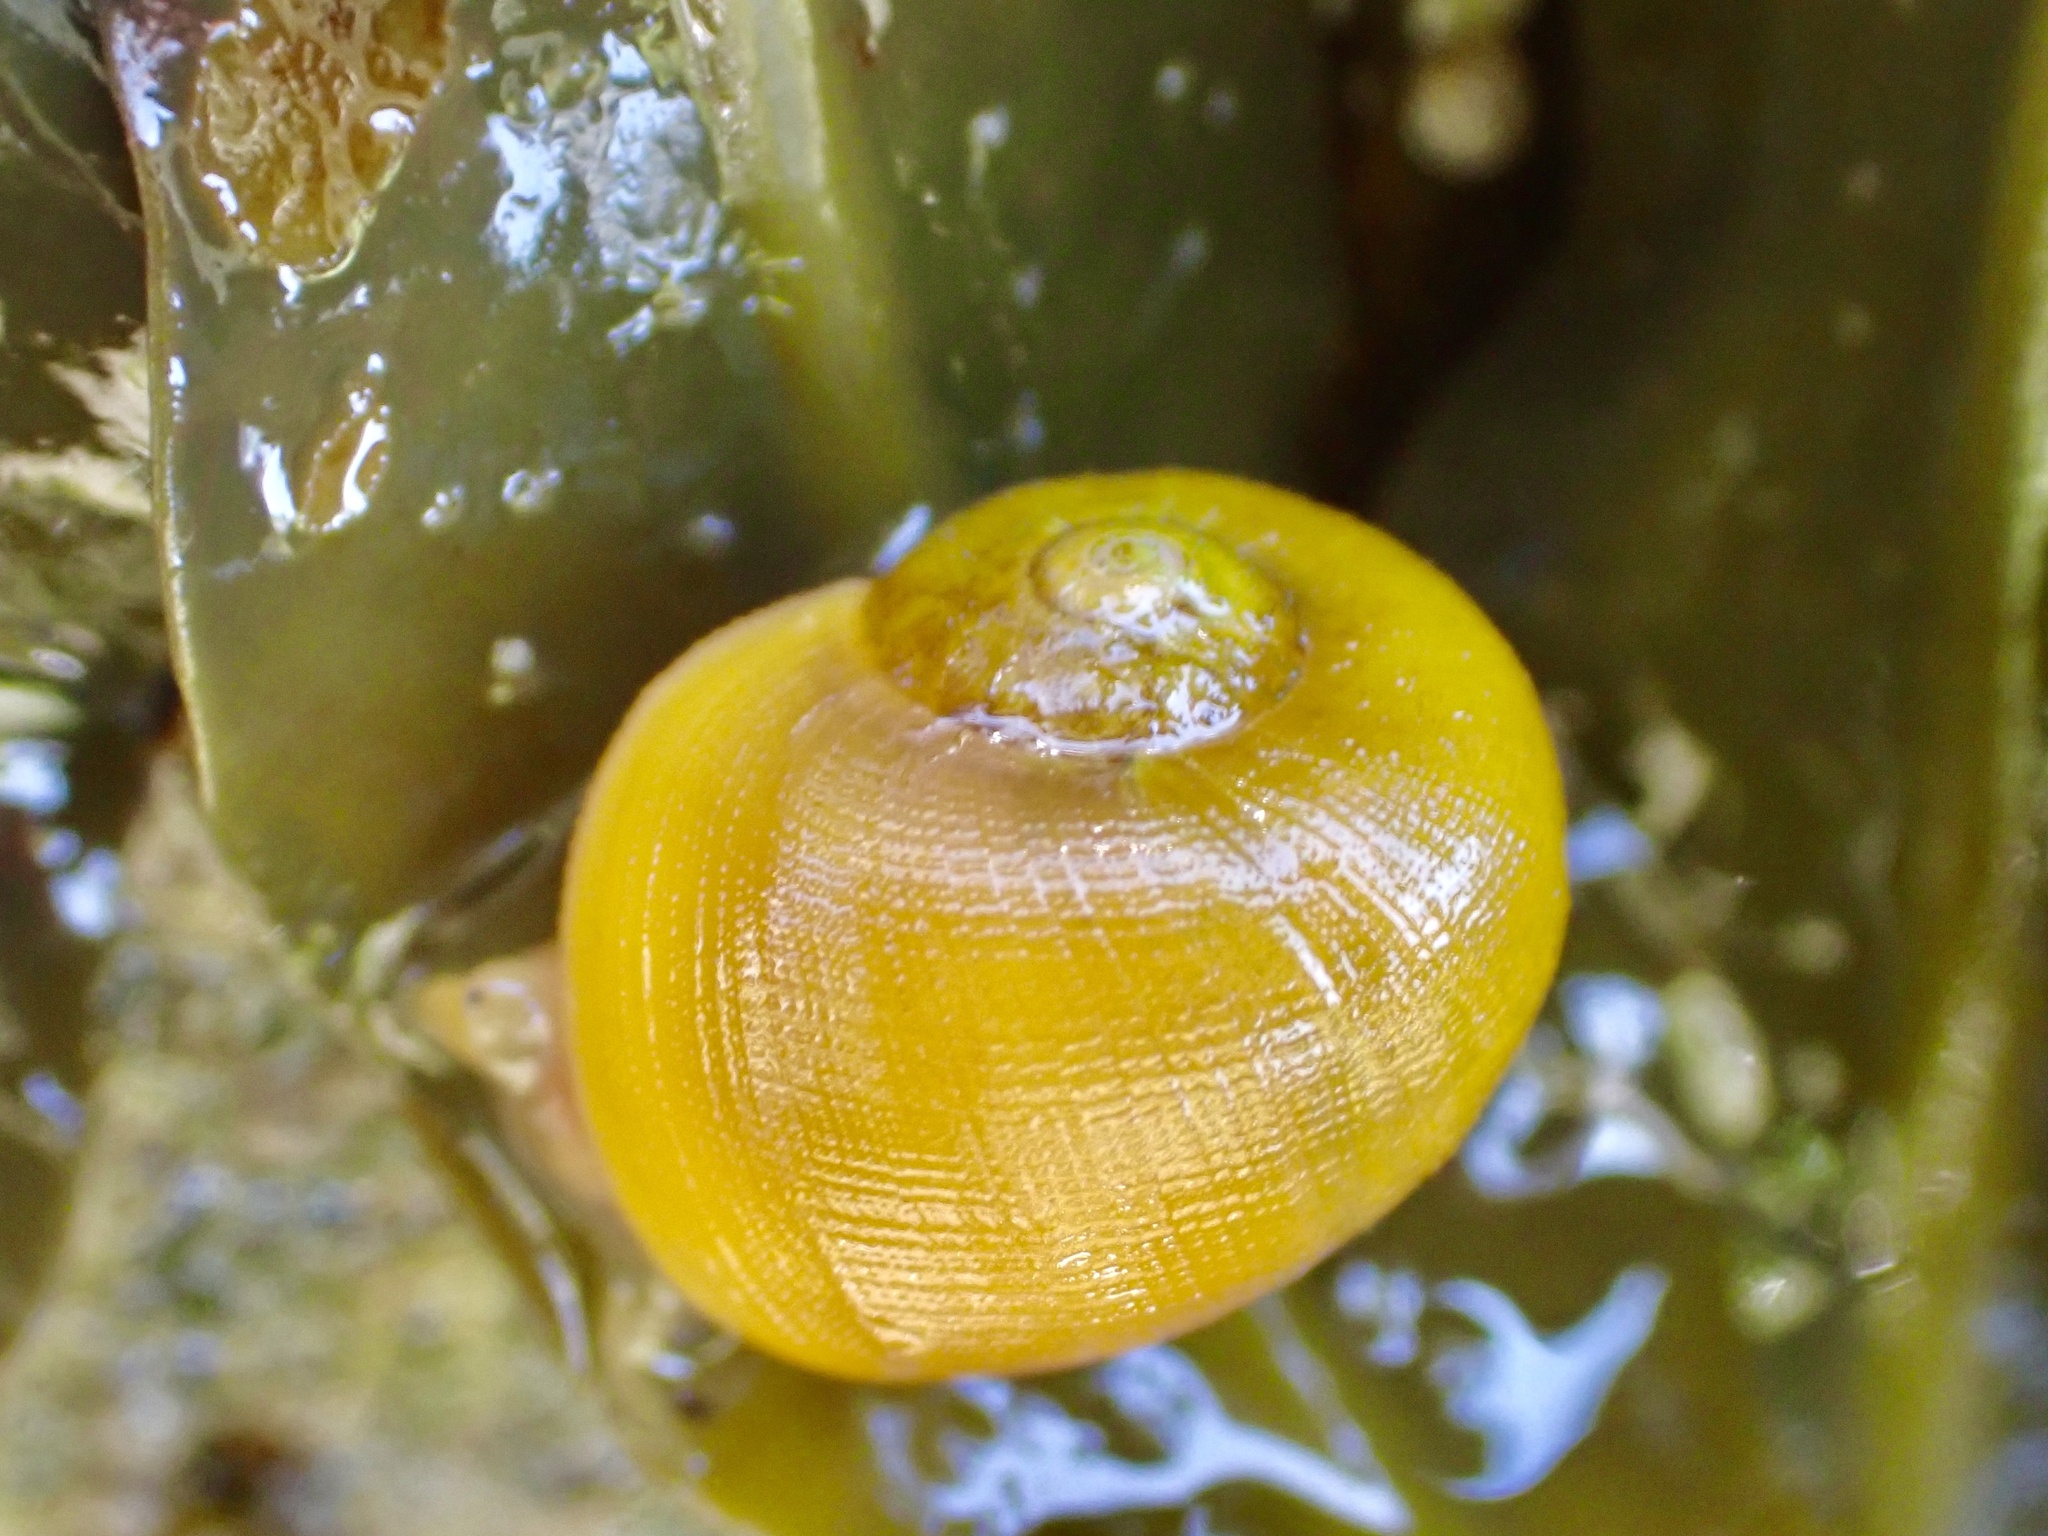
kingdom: Animalia
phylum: Mollusca
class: Gastropoda
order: Littorinimorpha
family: Littorinidae
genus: Littorina
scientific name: Littorina obtusata
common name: Flat periwinkle
